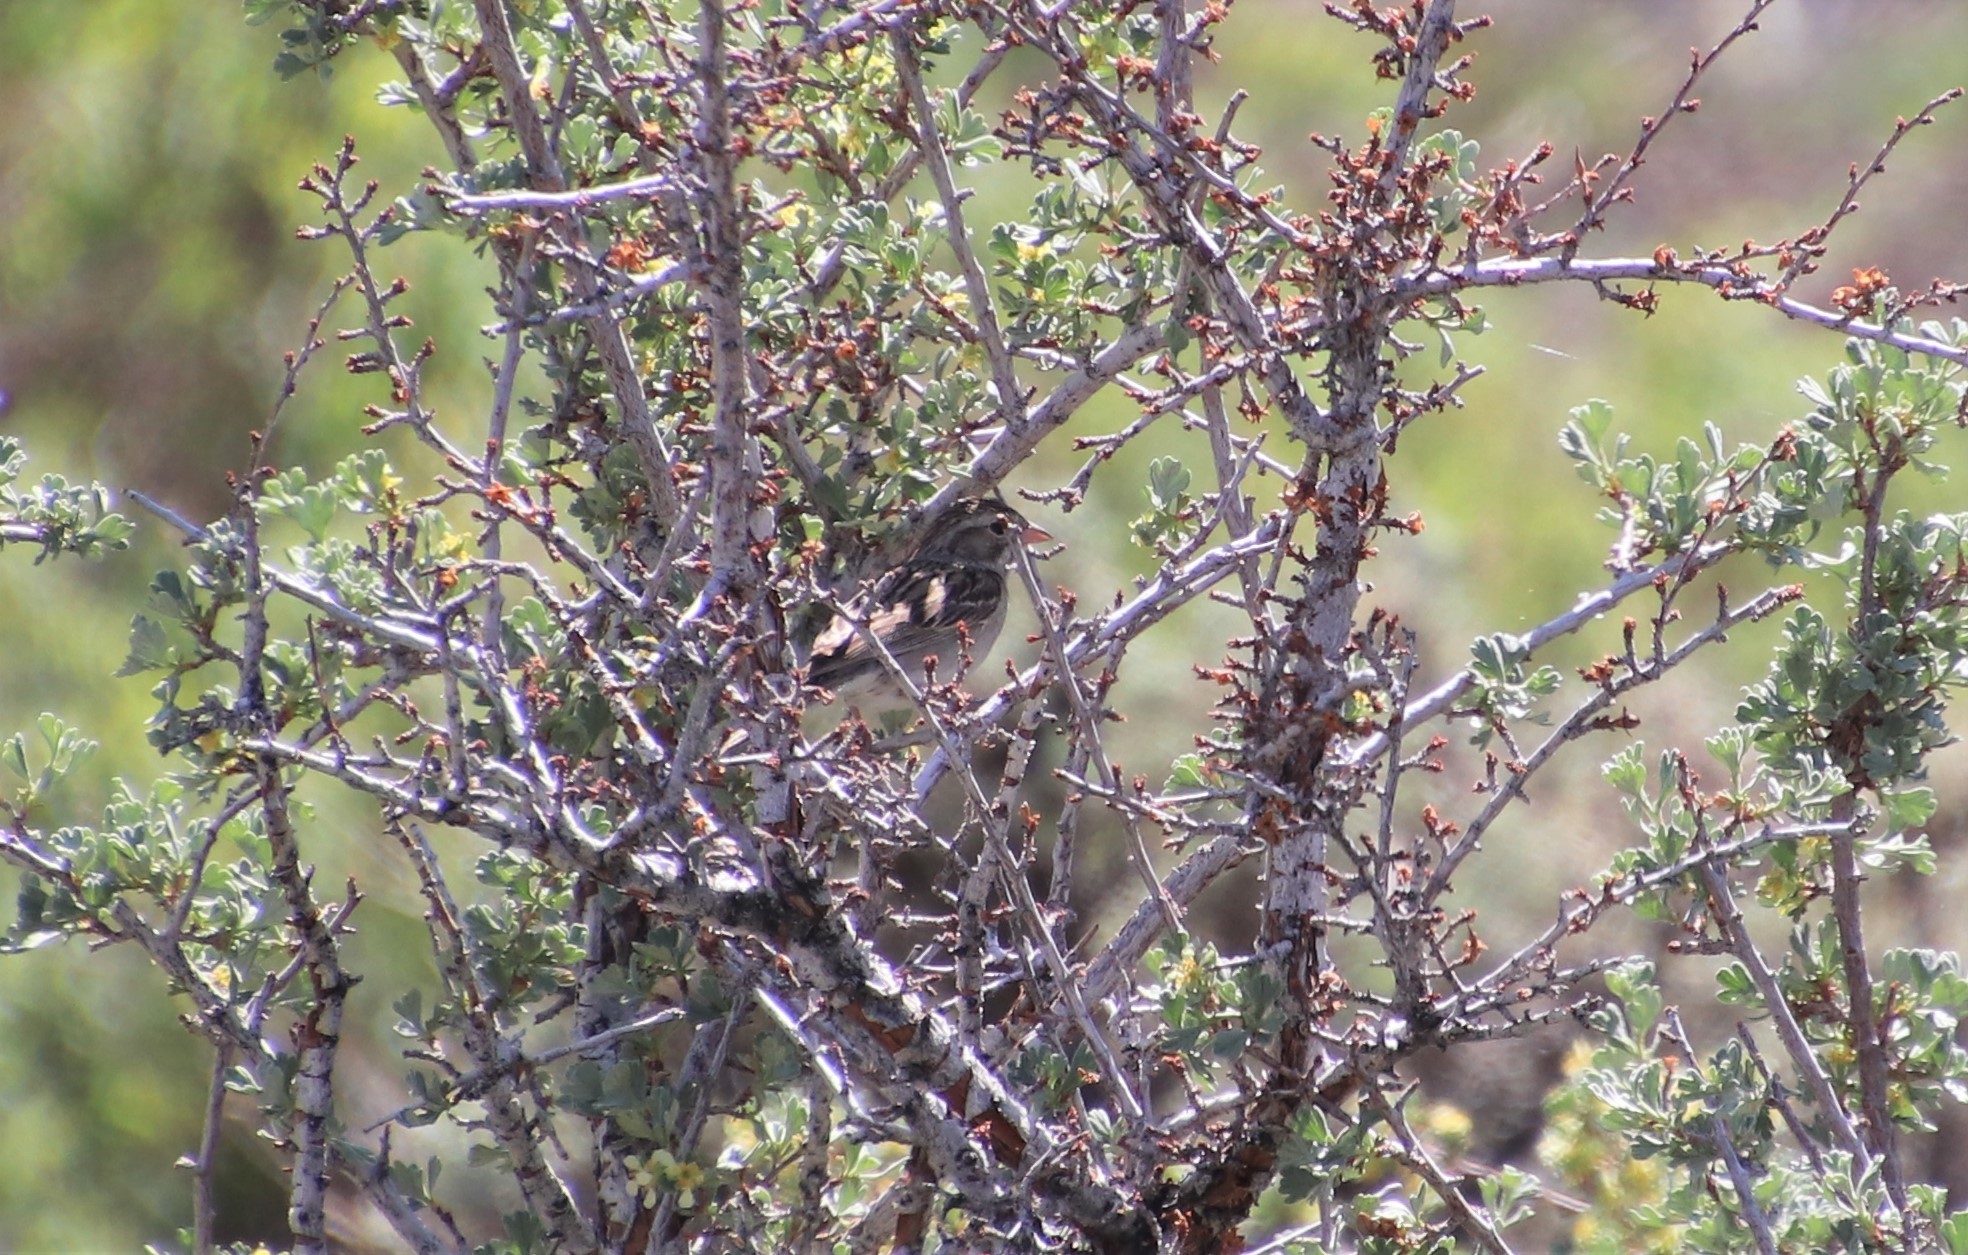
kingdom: Animalia
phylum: Chordata
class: Aves
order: Passeriformes
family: Passerellidae
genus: Spizella
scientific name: Spizella breweri
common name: Brewer's sparrow
